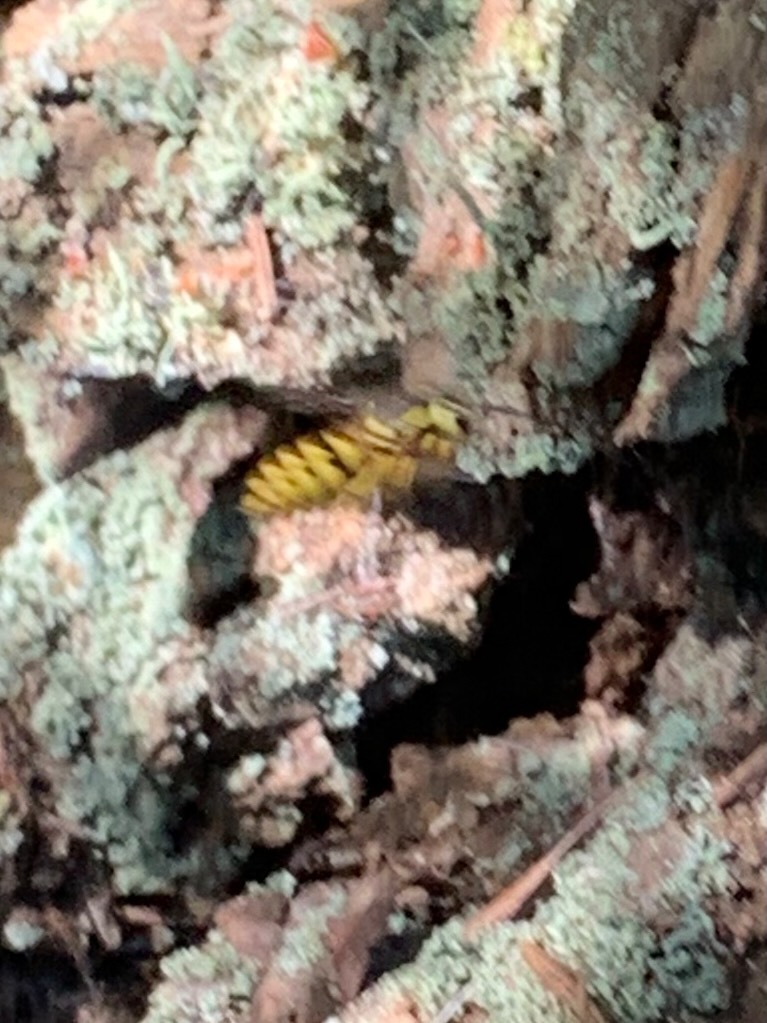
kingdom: Animalia
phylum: Arthropoda
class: Insecta
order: Hymenoptera
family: Vespidae
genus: Vespula
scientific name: Vespula pensylvanica
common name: Western yellowjacket
